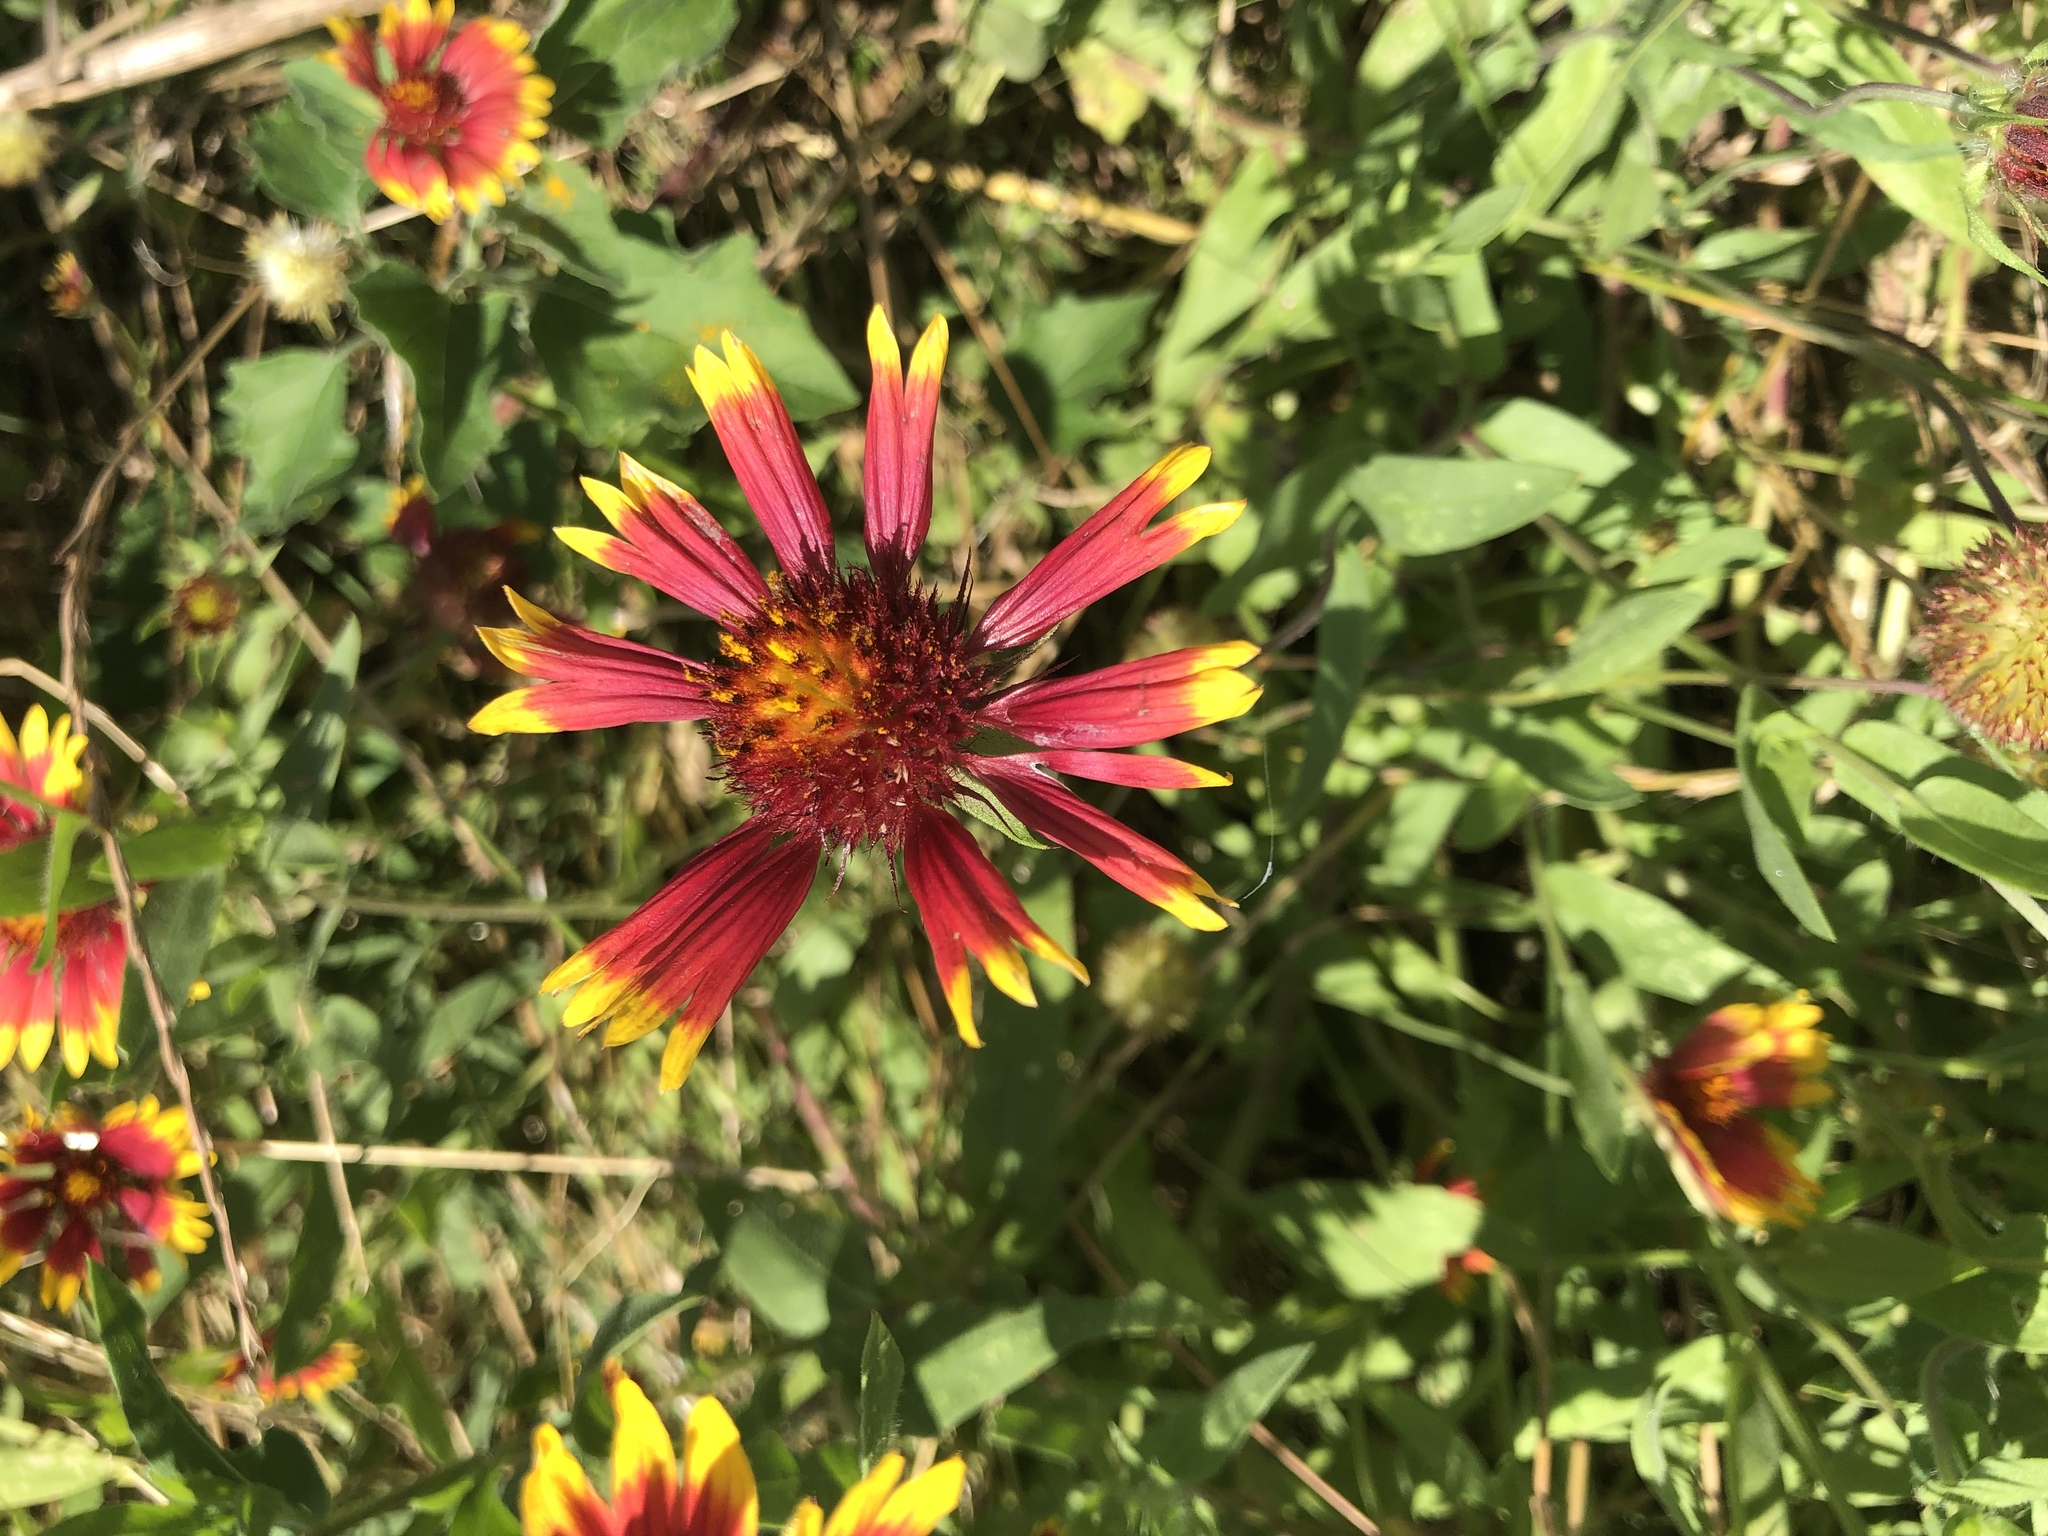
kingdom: Plantae
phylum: Tracheophyta
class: Magnoliopsida
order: Asterales
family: Asteraceae
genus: Gaillardia
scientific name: Gaillardia pulchella
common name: Firewheel
